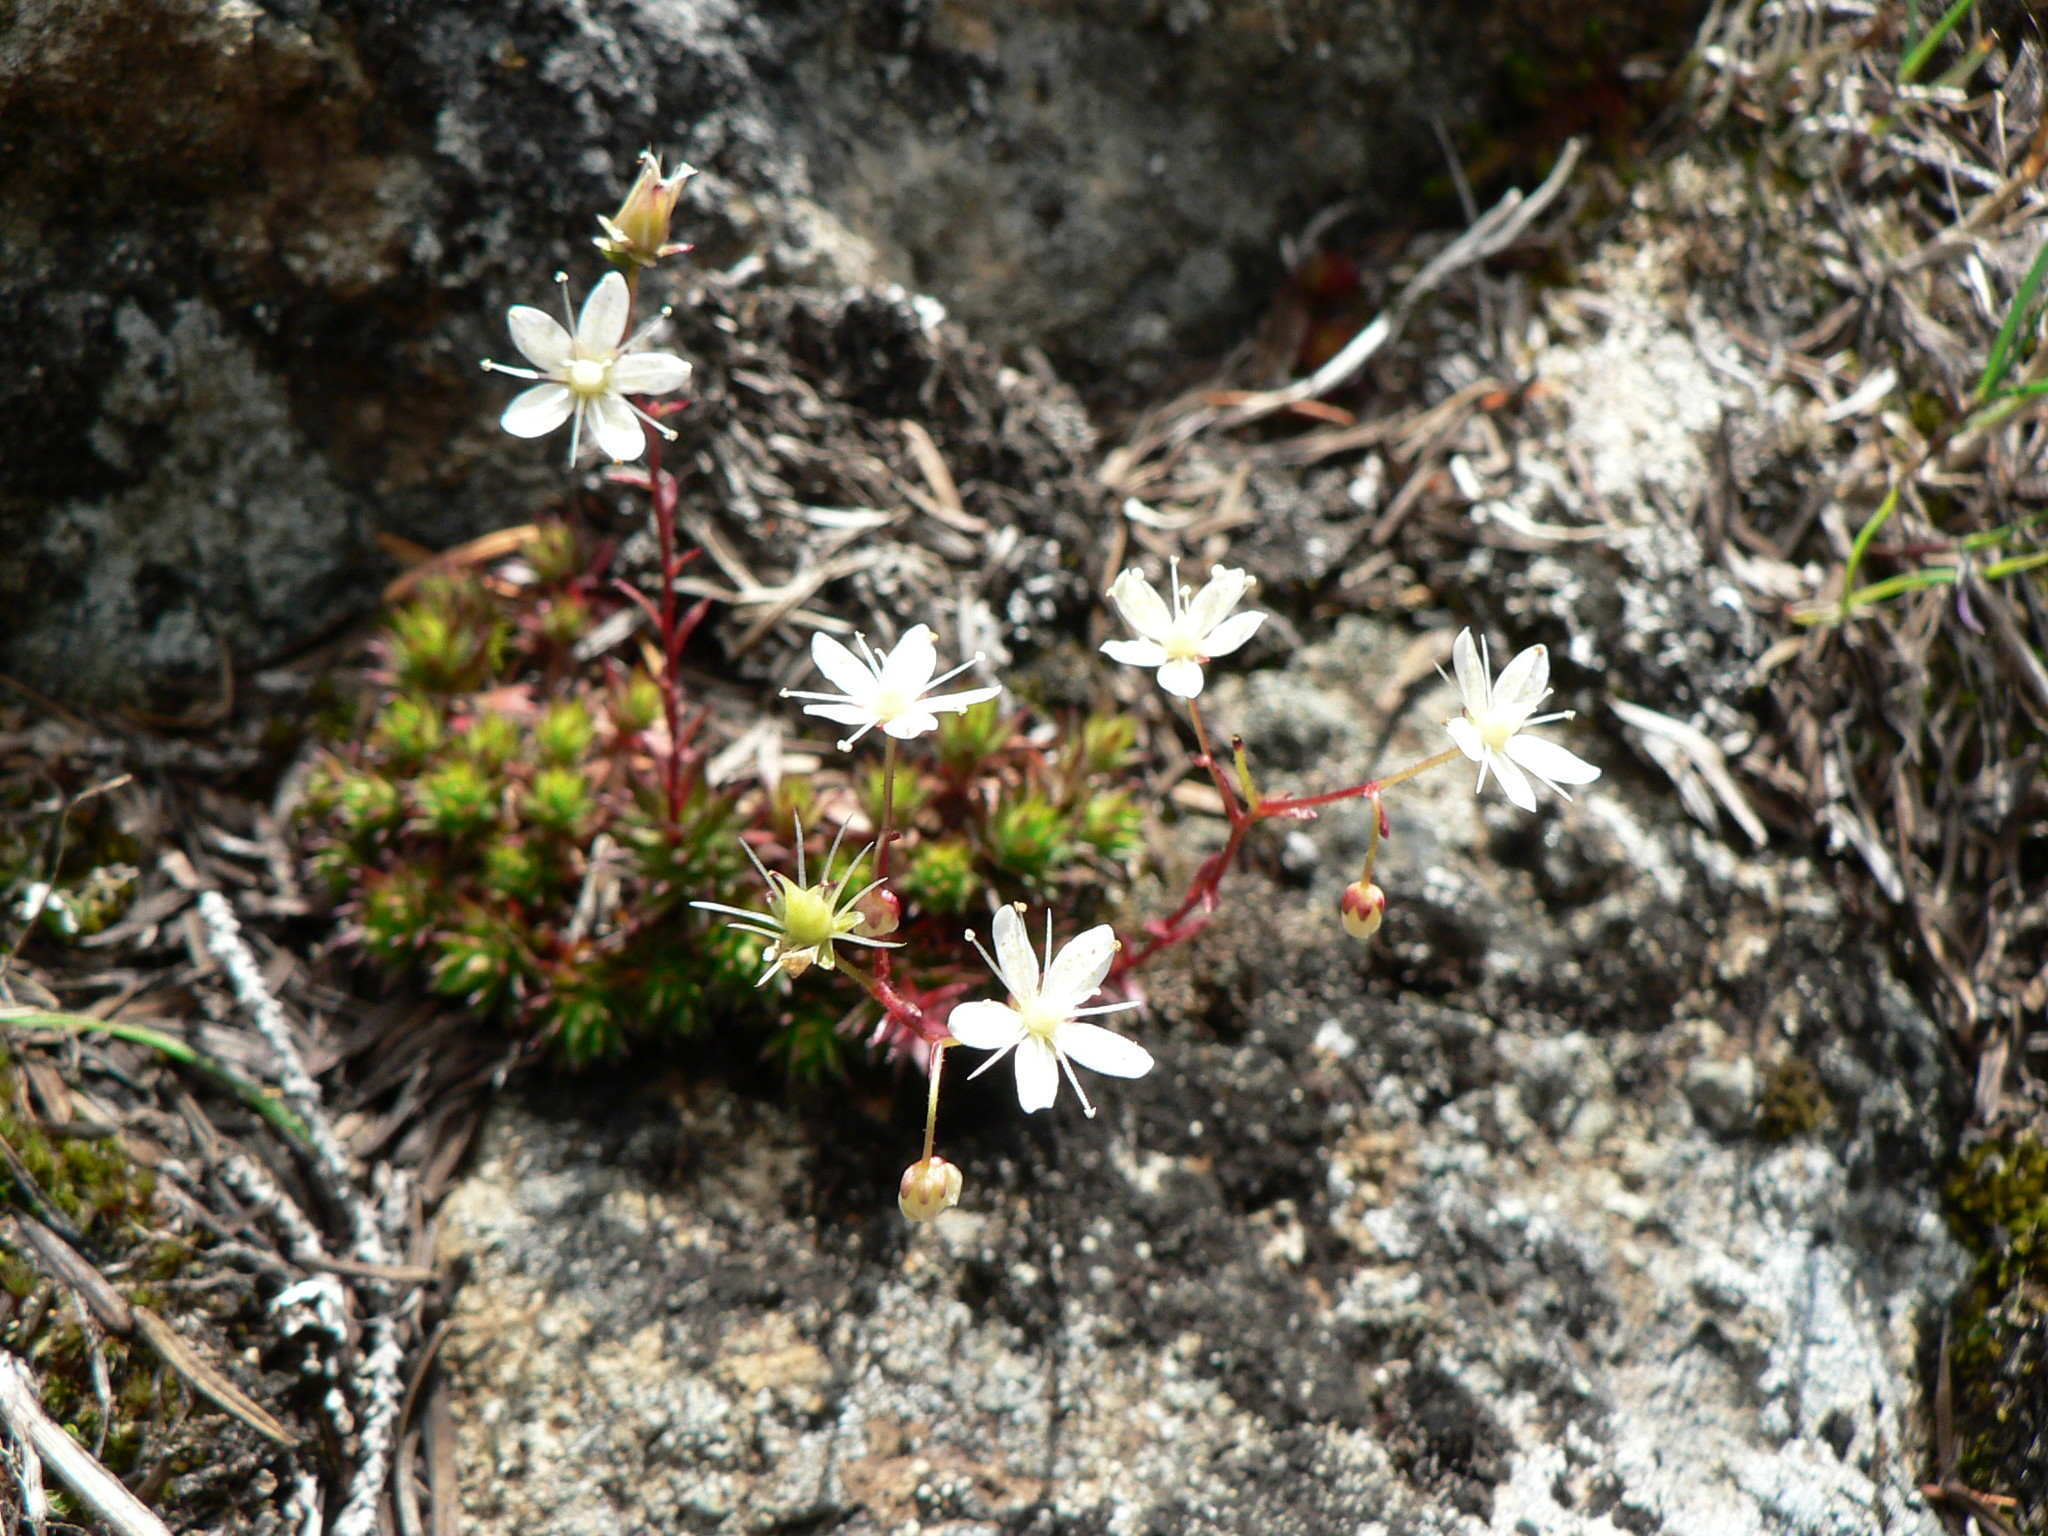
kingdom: Plantae
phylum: Tracheophyta
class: Magnoliopsida
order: Saxifragales
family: Saxifragaceae
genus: Saxifraga
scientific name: Saxifraga bronchialis
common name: Matted saxifrage
